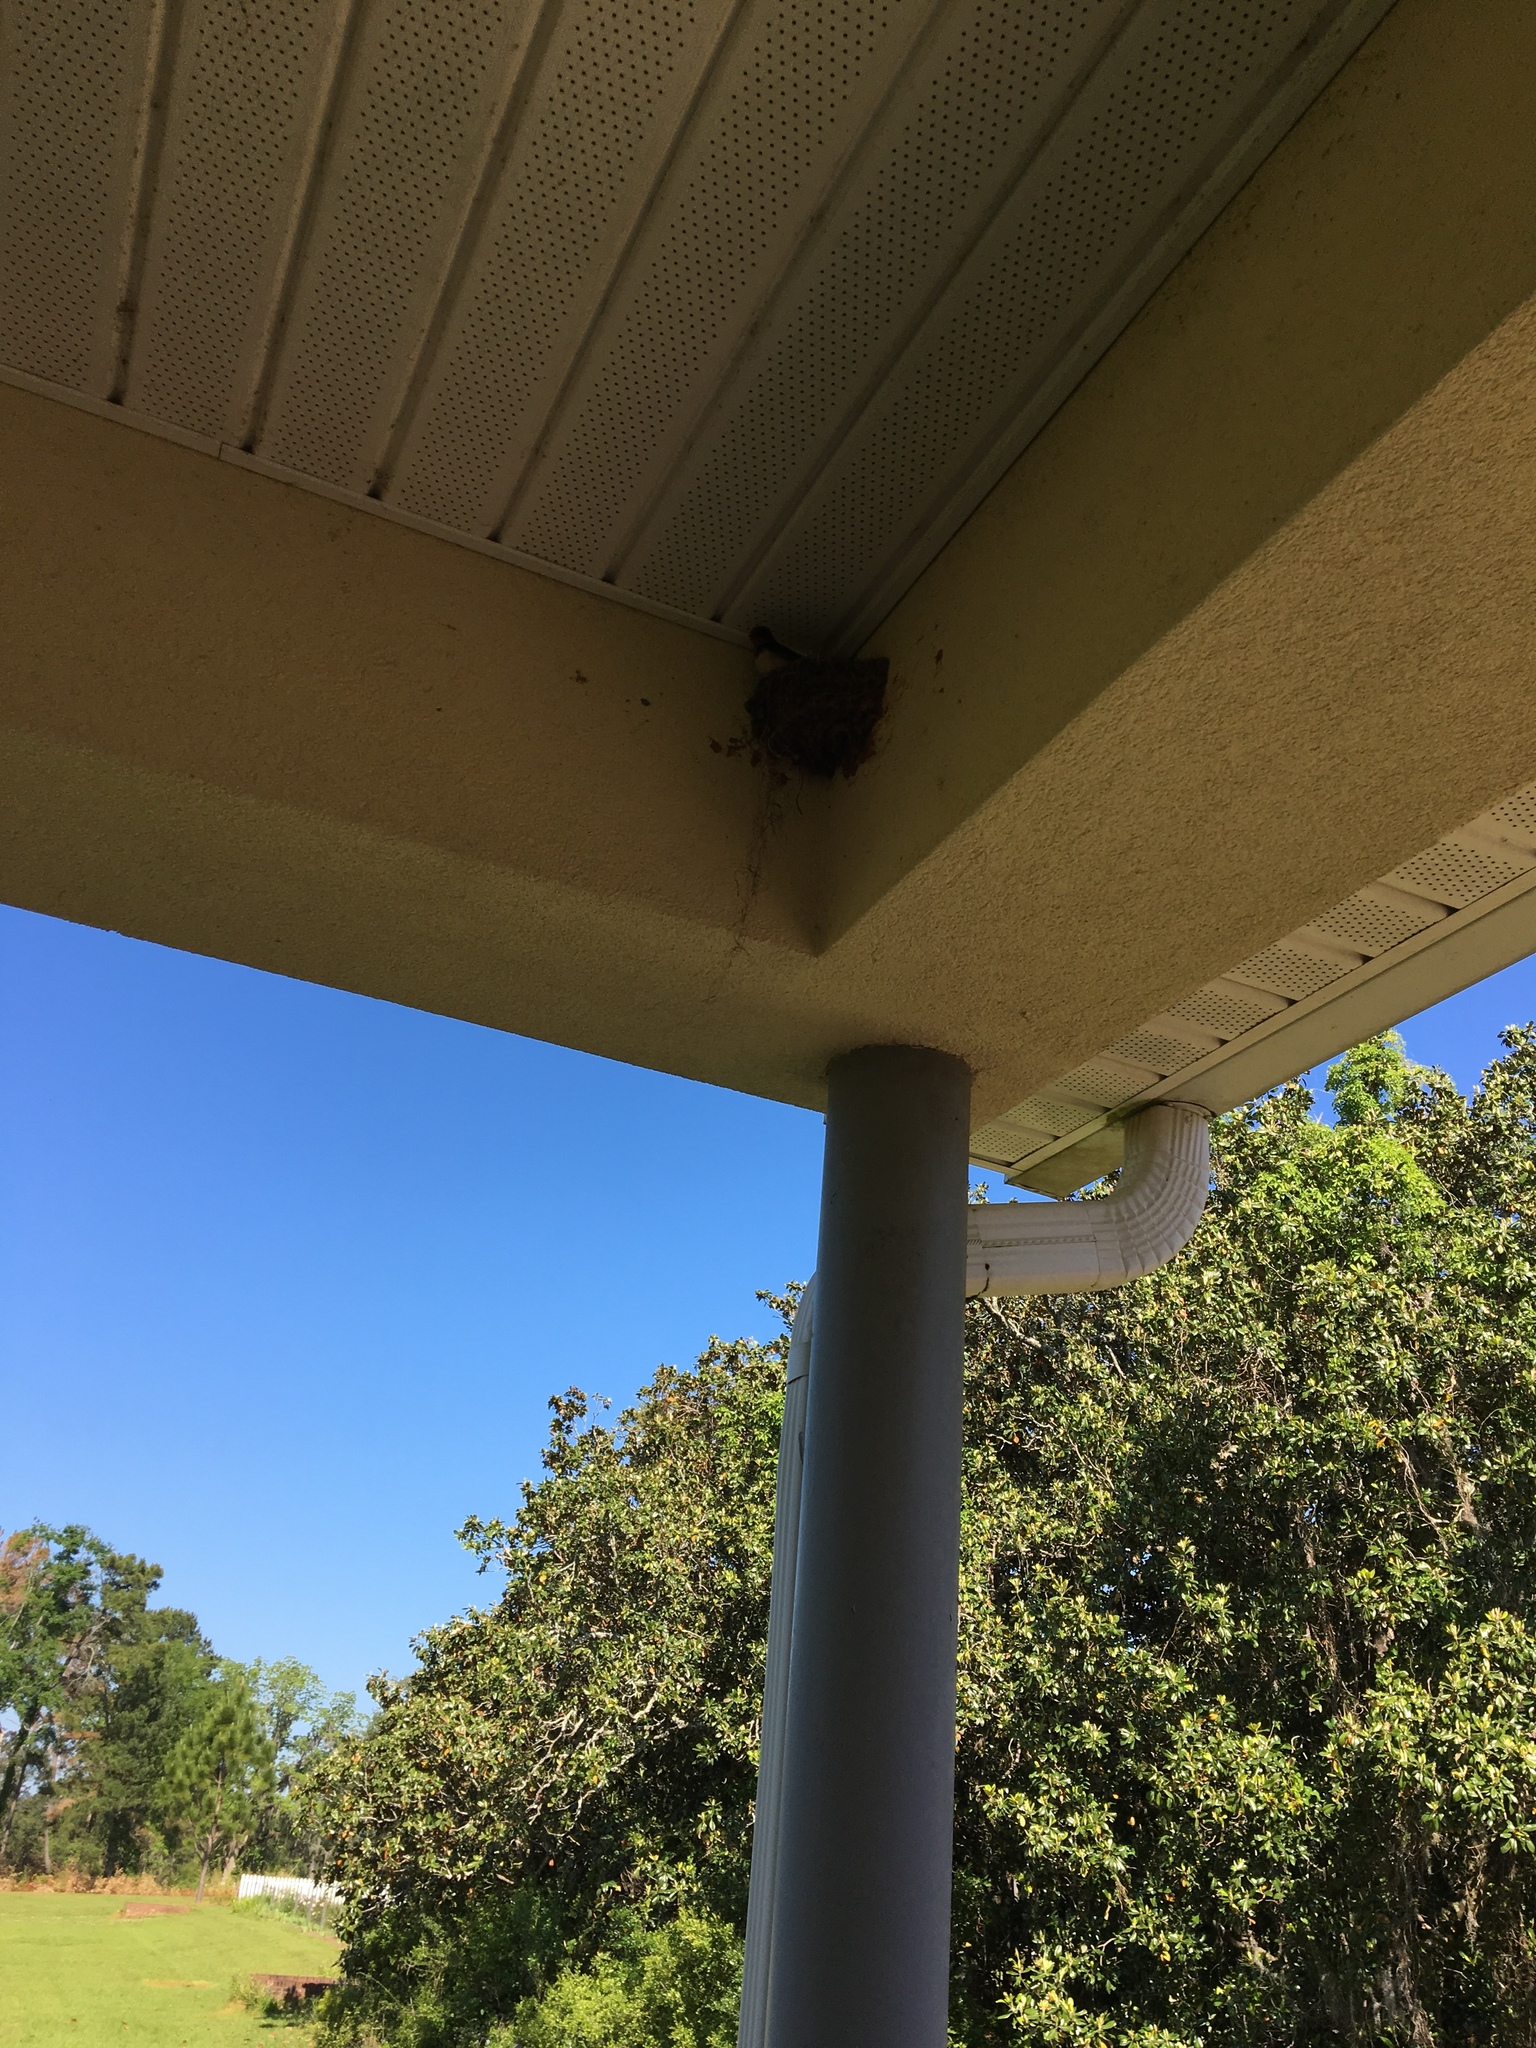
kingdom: Animalia
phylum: Chordata
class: Aves
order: Passeriformes
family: Hirundinidae
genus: Hirundo
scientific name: Hirundo rustica
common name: Barn swallow
